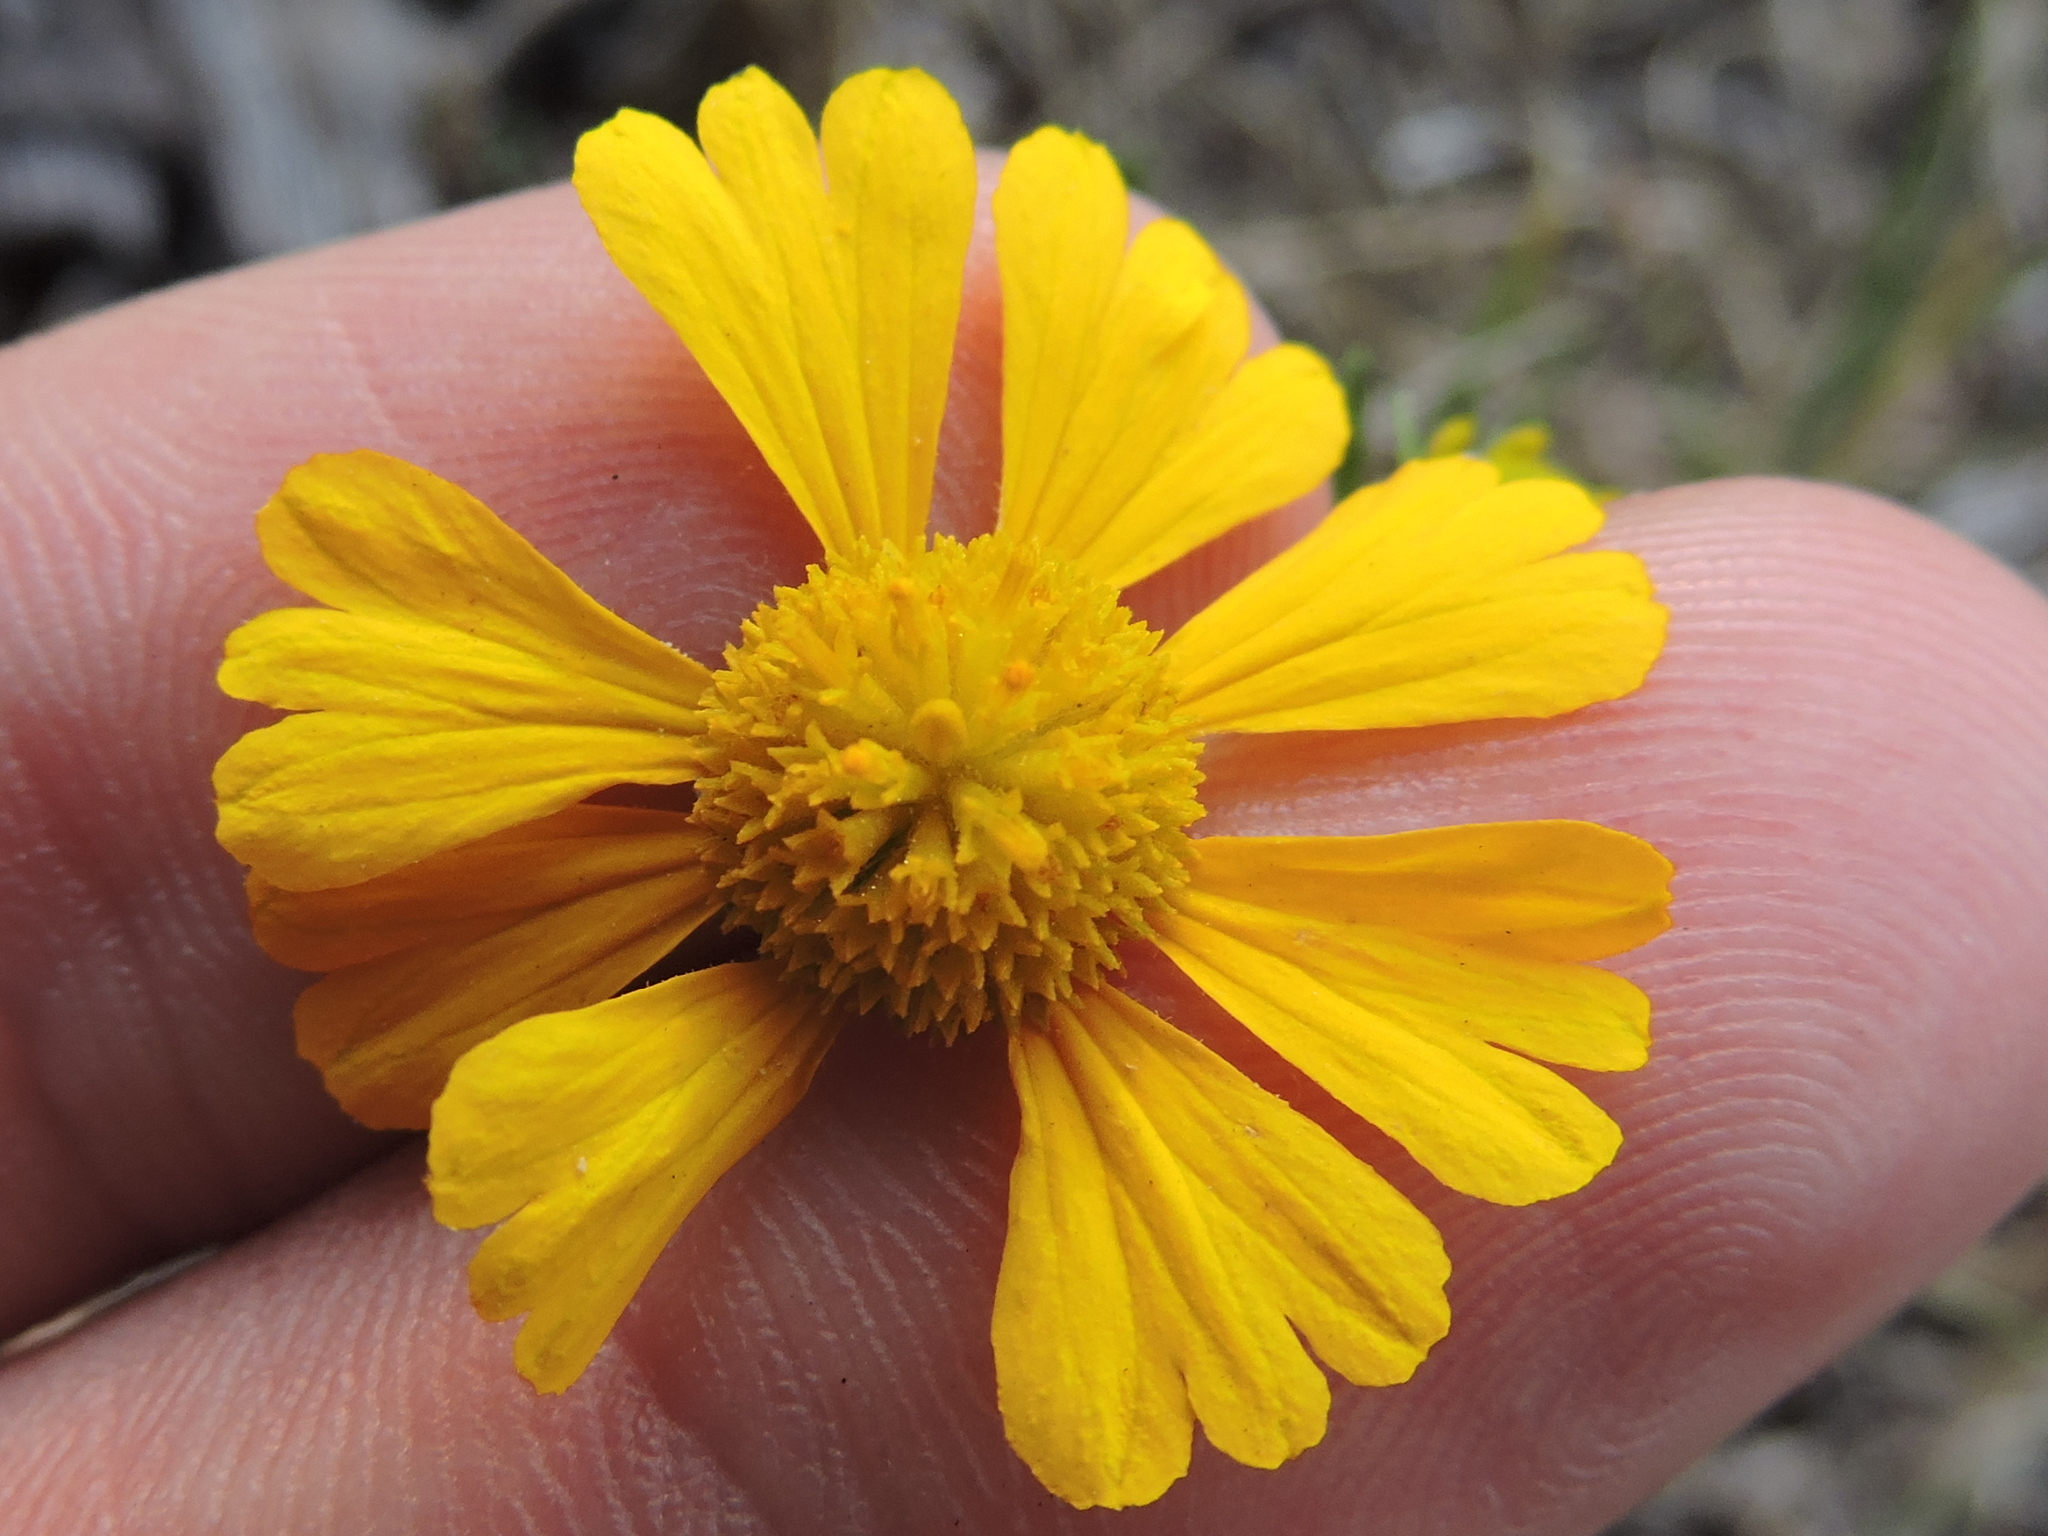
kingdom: Plantae
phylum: Tracheophyta
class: Magnoliopsida
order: Asterales
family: Asteraceae
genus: Helenium
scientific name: Helenium amarum
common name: Bitter sneezeweed
